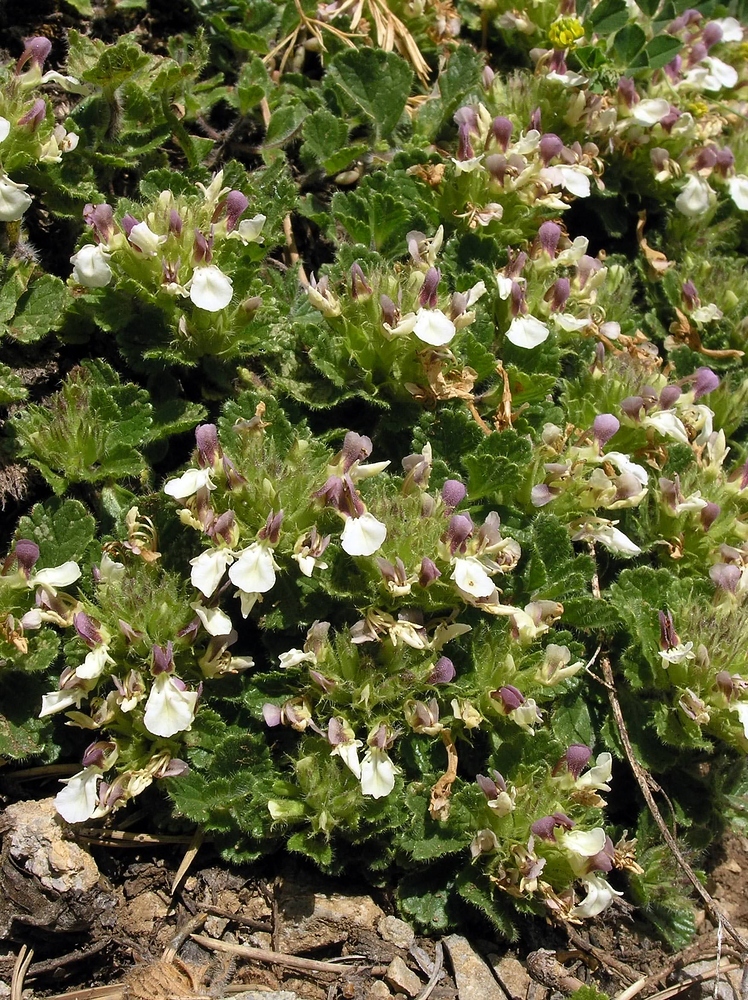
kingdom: Plantae
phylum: Tracheophyta
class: Magnoliopsida
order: Lamiales
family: Lamiaceae
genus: Teucrium
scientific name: Teucrium pyrenaicum
